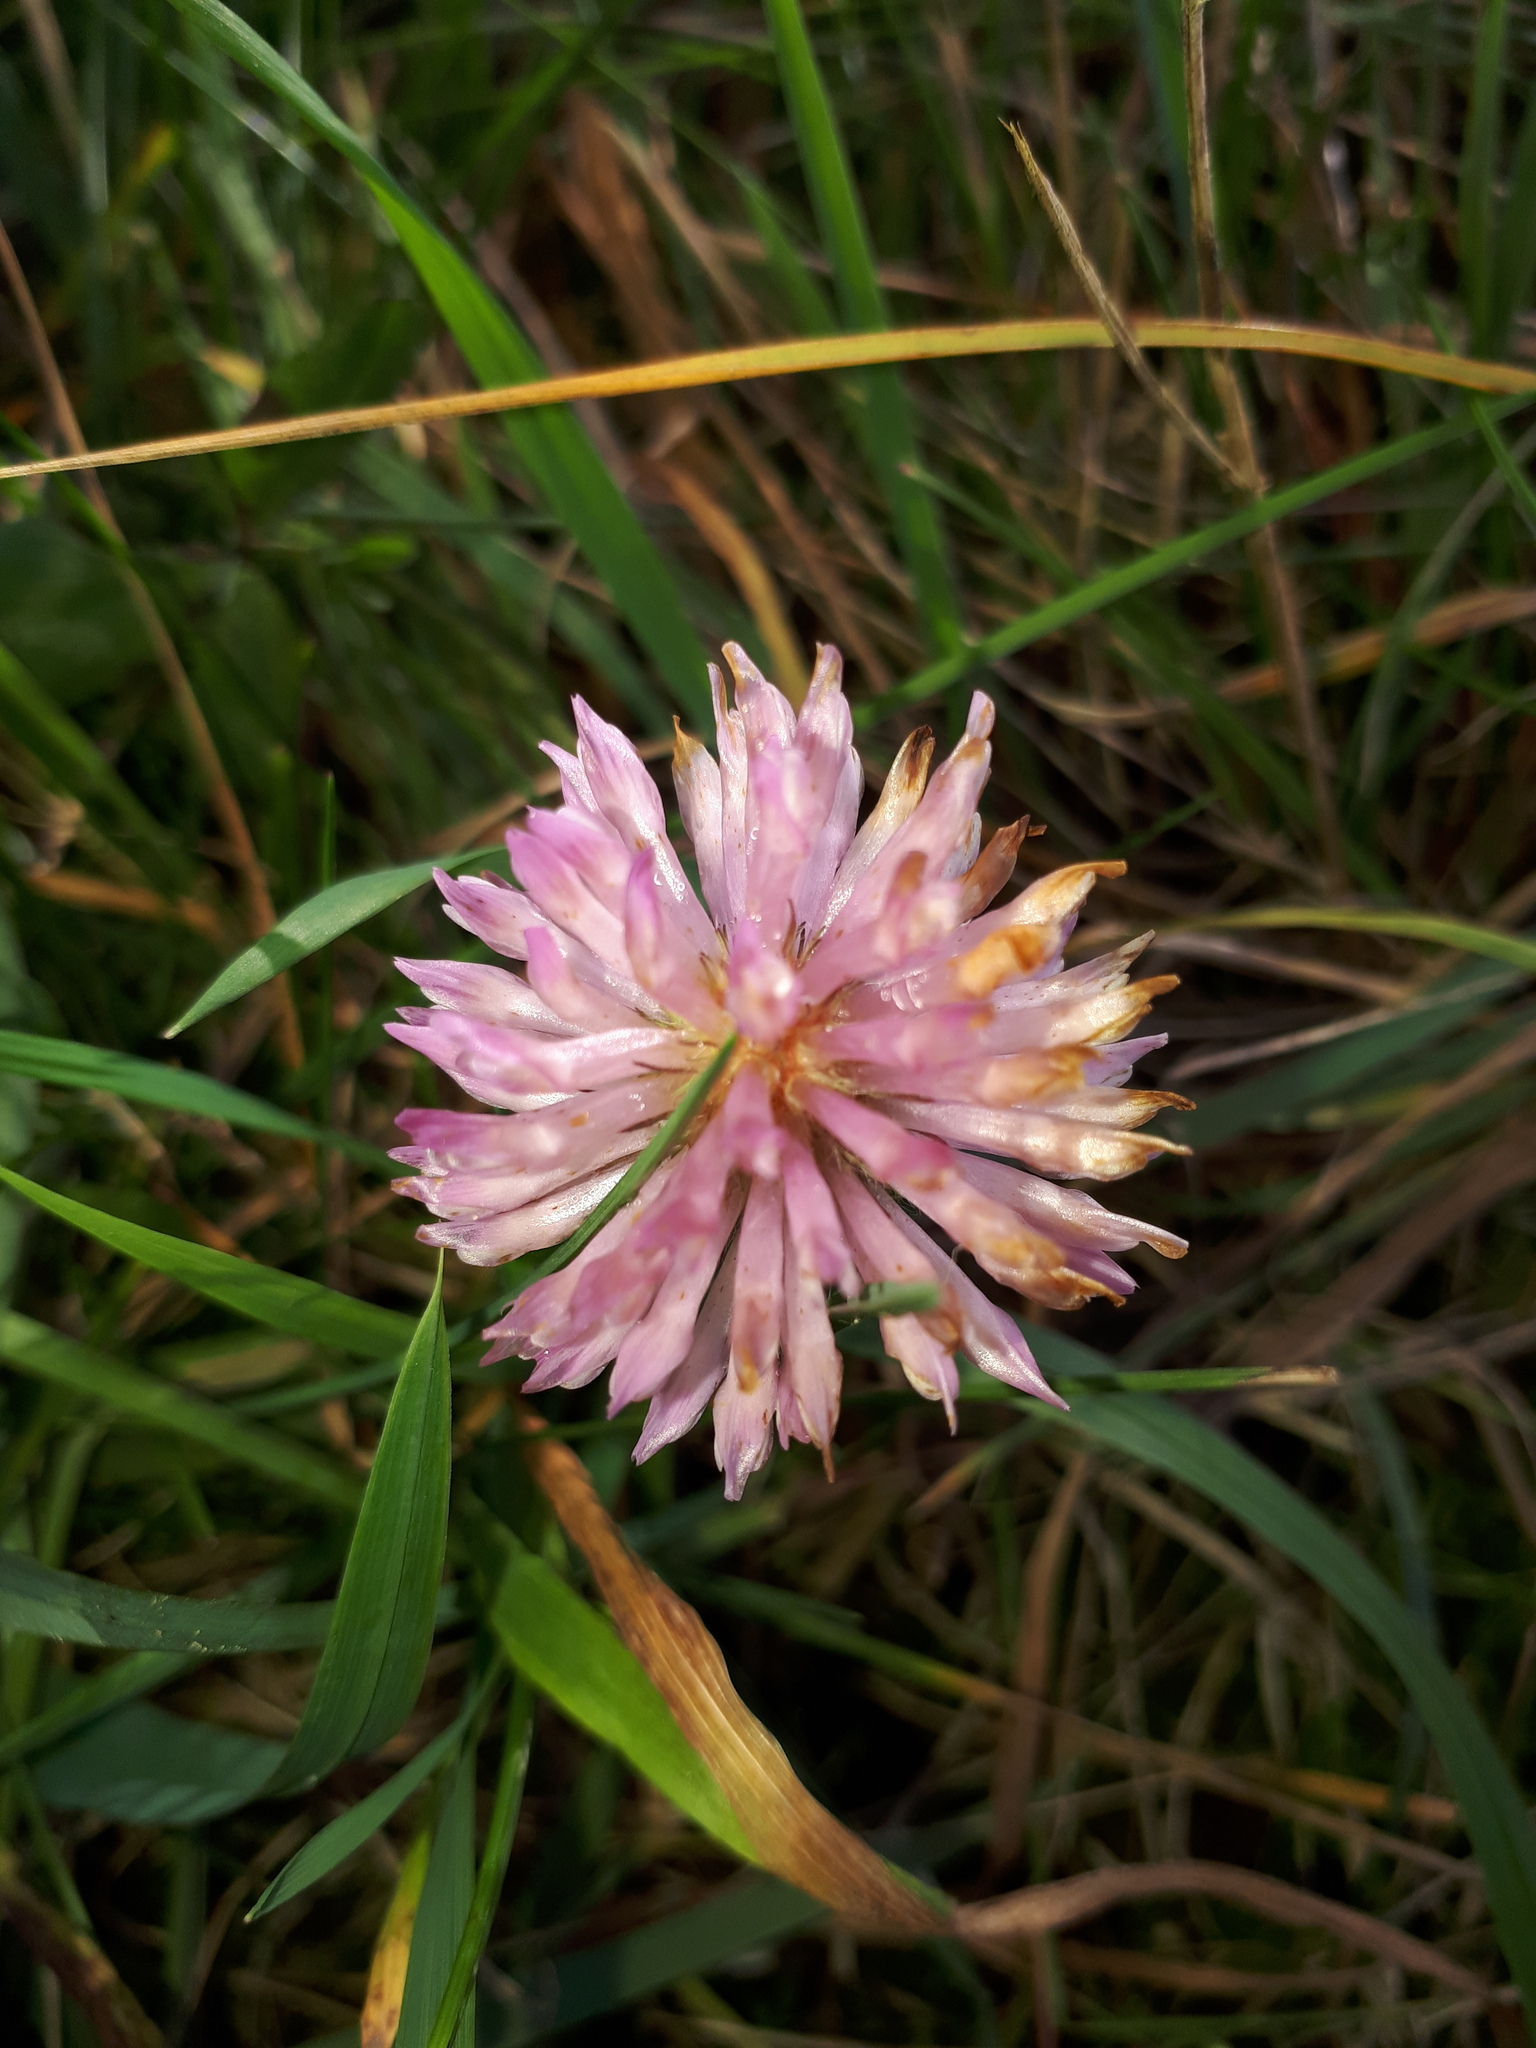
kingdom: Plantae
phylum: Tracheophyta
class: Magnoliopsida
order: Fabales
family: Fabaceae
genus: Trifolium
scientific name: Trifolium pratense
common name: Red clover
